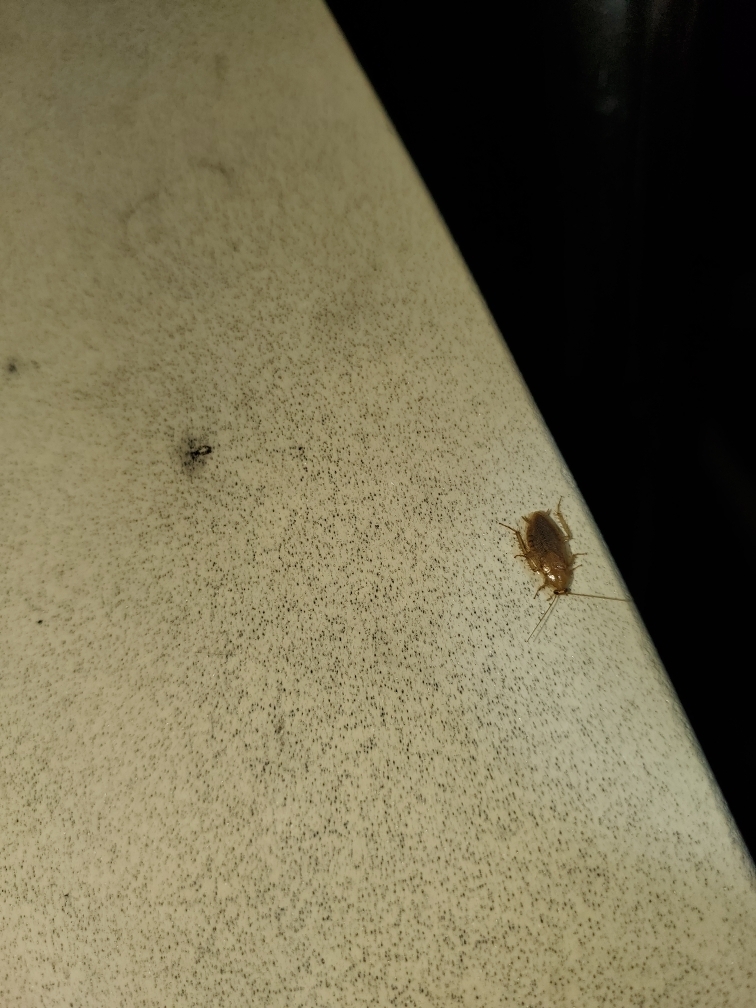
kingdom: Animalia
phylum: Arthropoda
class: Insecta
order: Blattodea
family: Ectobiidae
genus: Ectobius
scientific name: Ectobius pallidus
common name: Tawny cockroach
